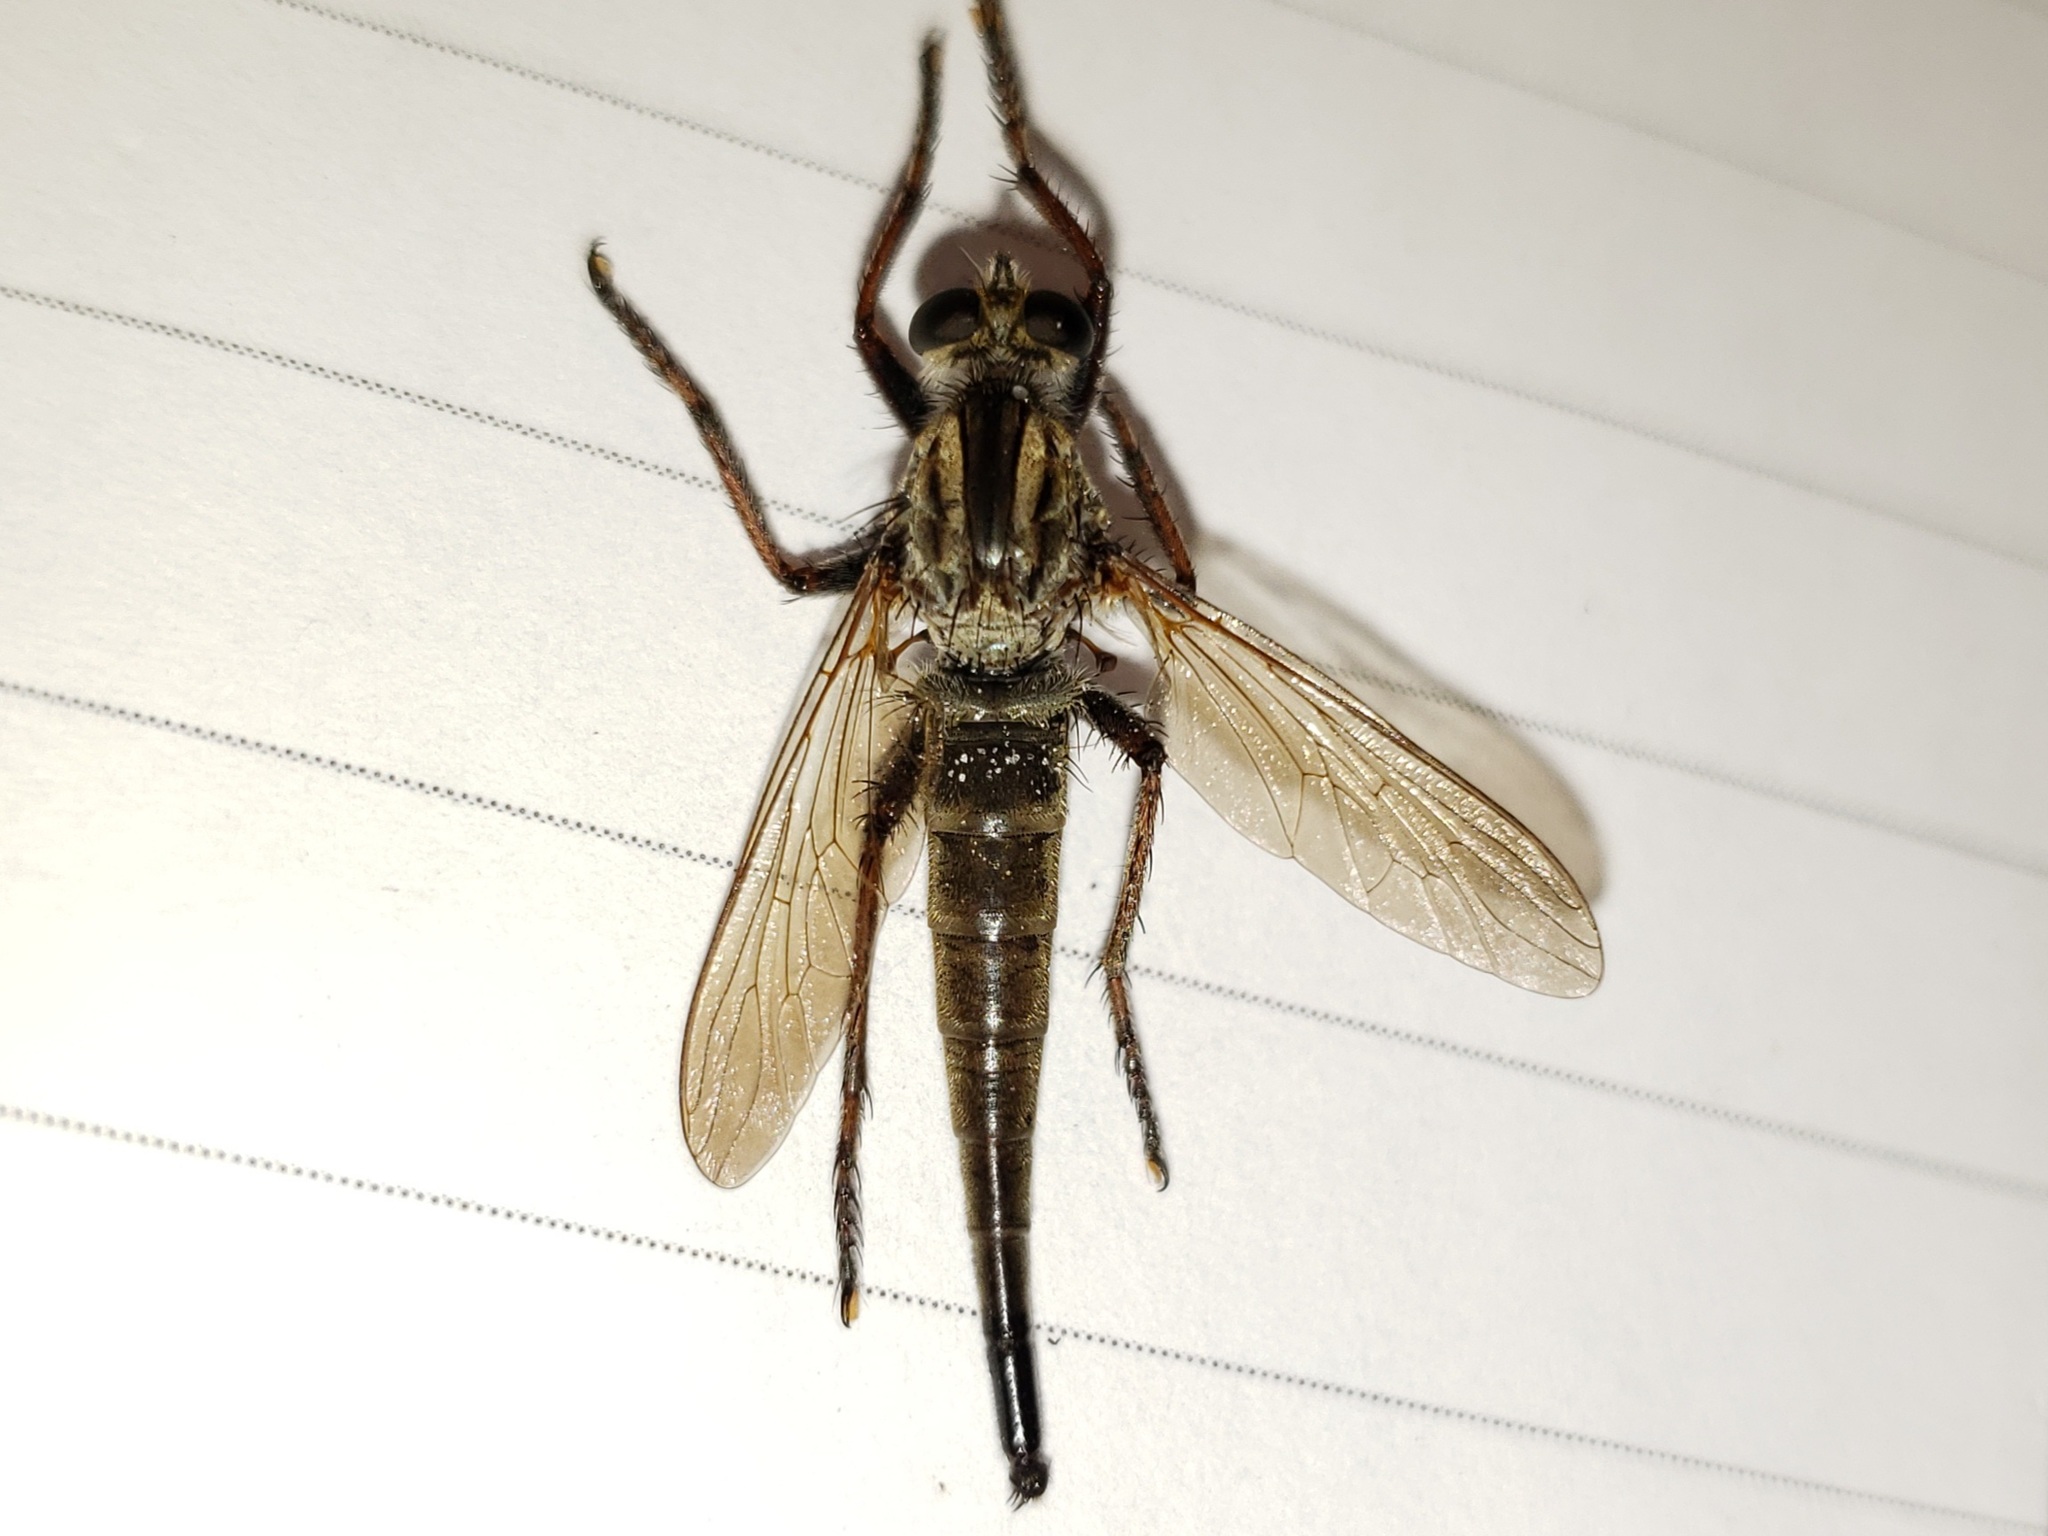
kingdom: Animalia
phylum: Arthropoda
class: Insecta
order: Diptera
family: Asilidae
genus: Proctacanthus
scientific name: Proctacanthus brevipennis
